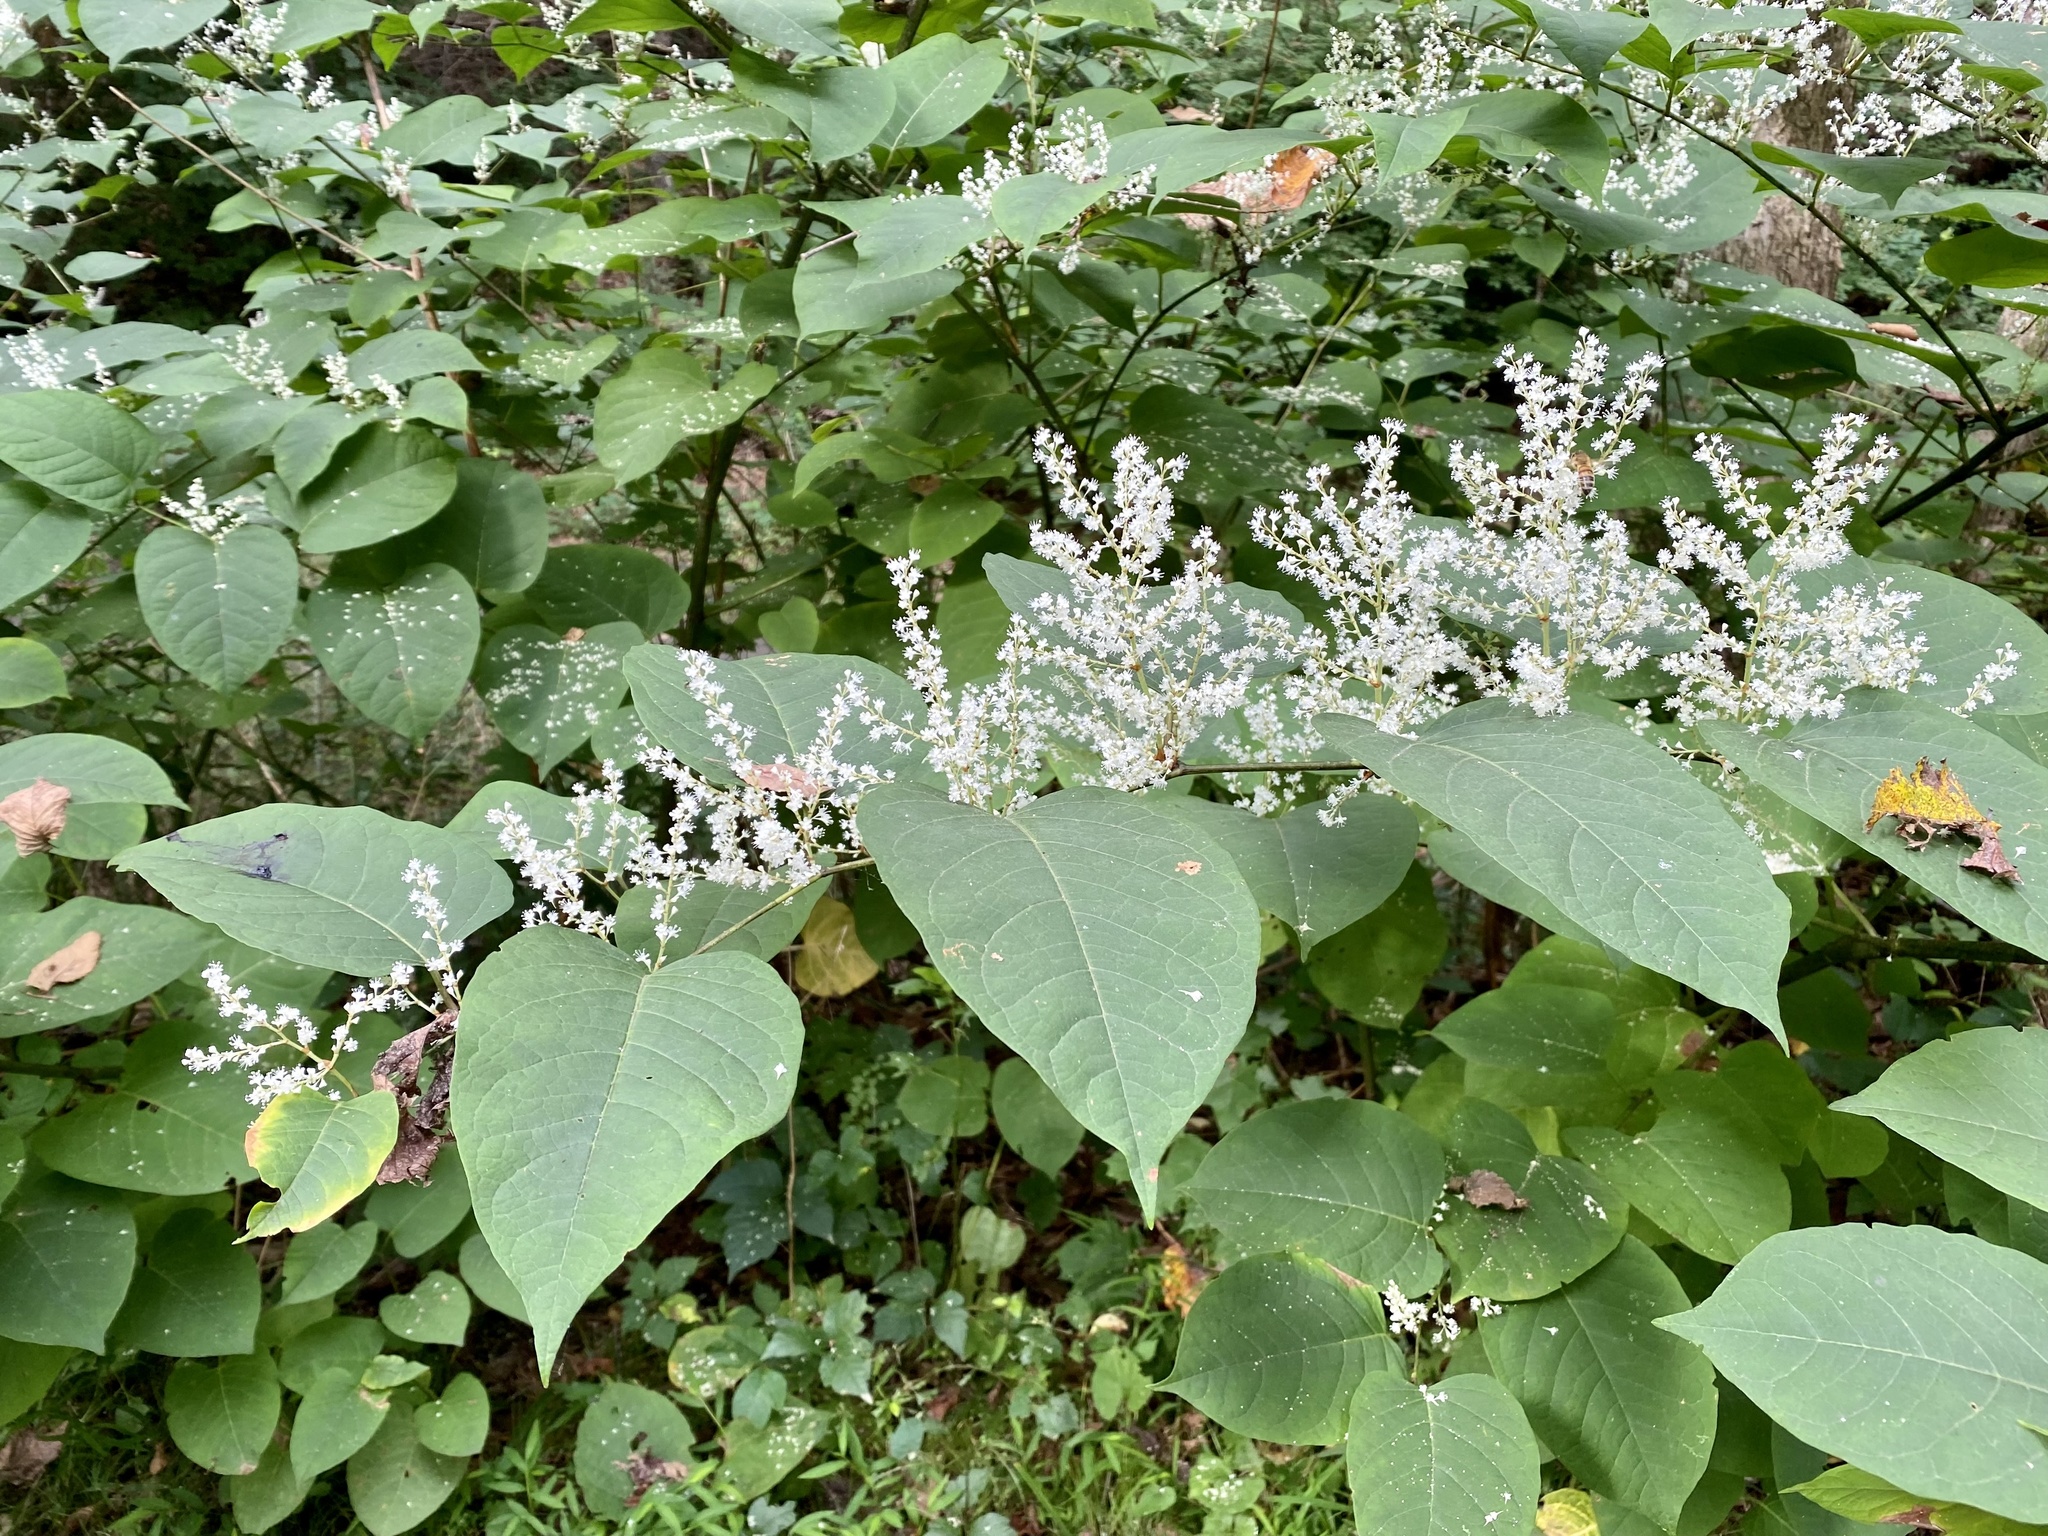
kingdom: Plantae
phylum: Tracheophyta
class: Magnoliopsida
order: Caryophyllales
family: Polygonaceae
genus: Reynoutria
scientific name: Reynoutria japonica
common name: Japanese knotweed
